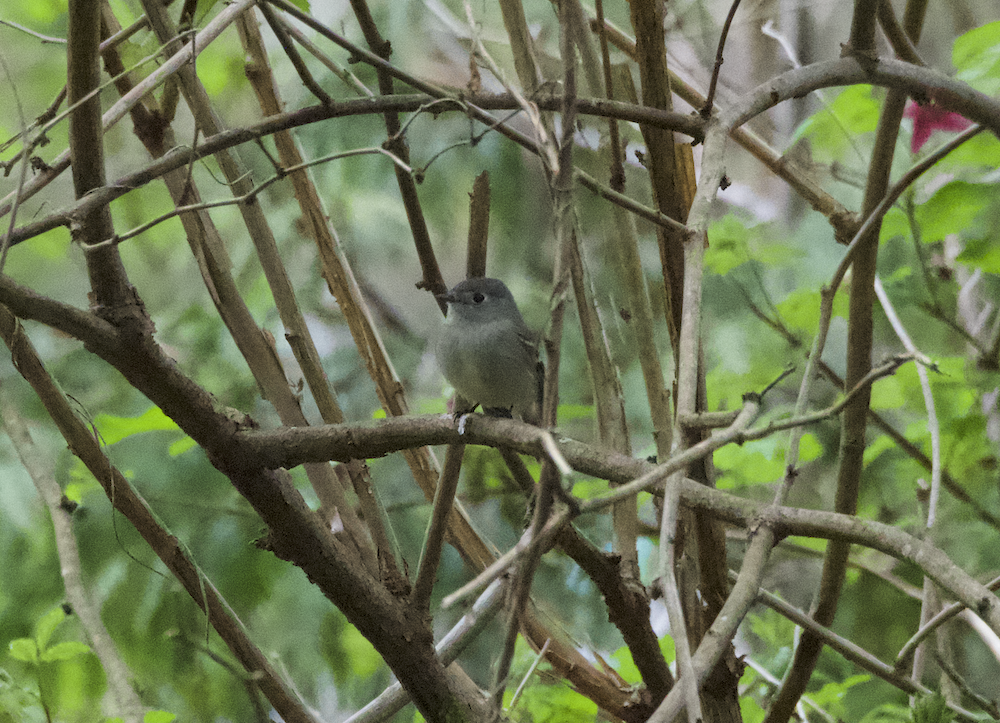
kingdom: Animalia
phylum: Chordata
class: Aves
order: Passeriformes
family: Tyrannidae
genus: Empidonax
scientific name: Empidonax hammondii
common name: Hammond's flycatcher
